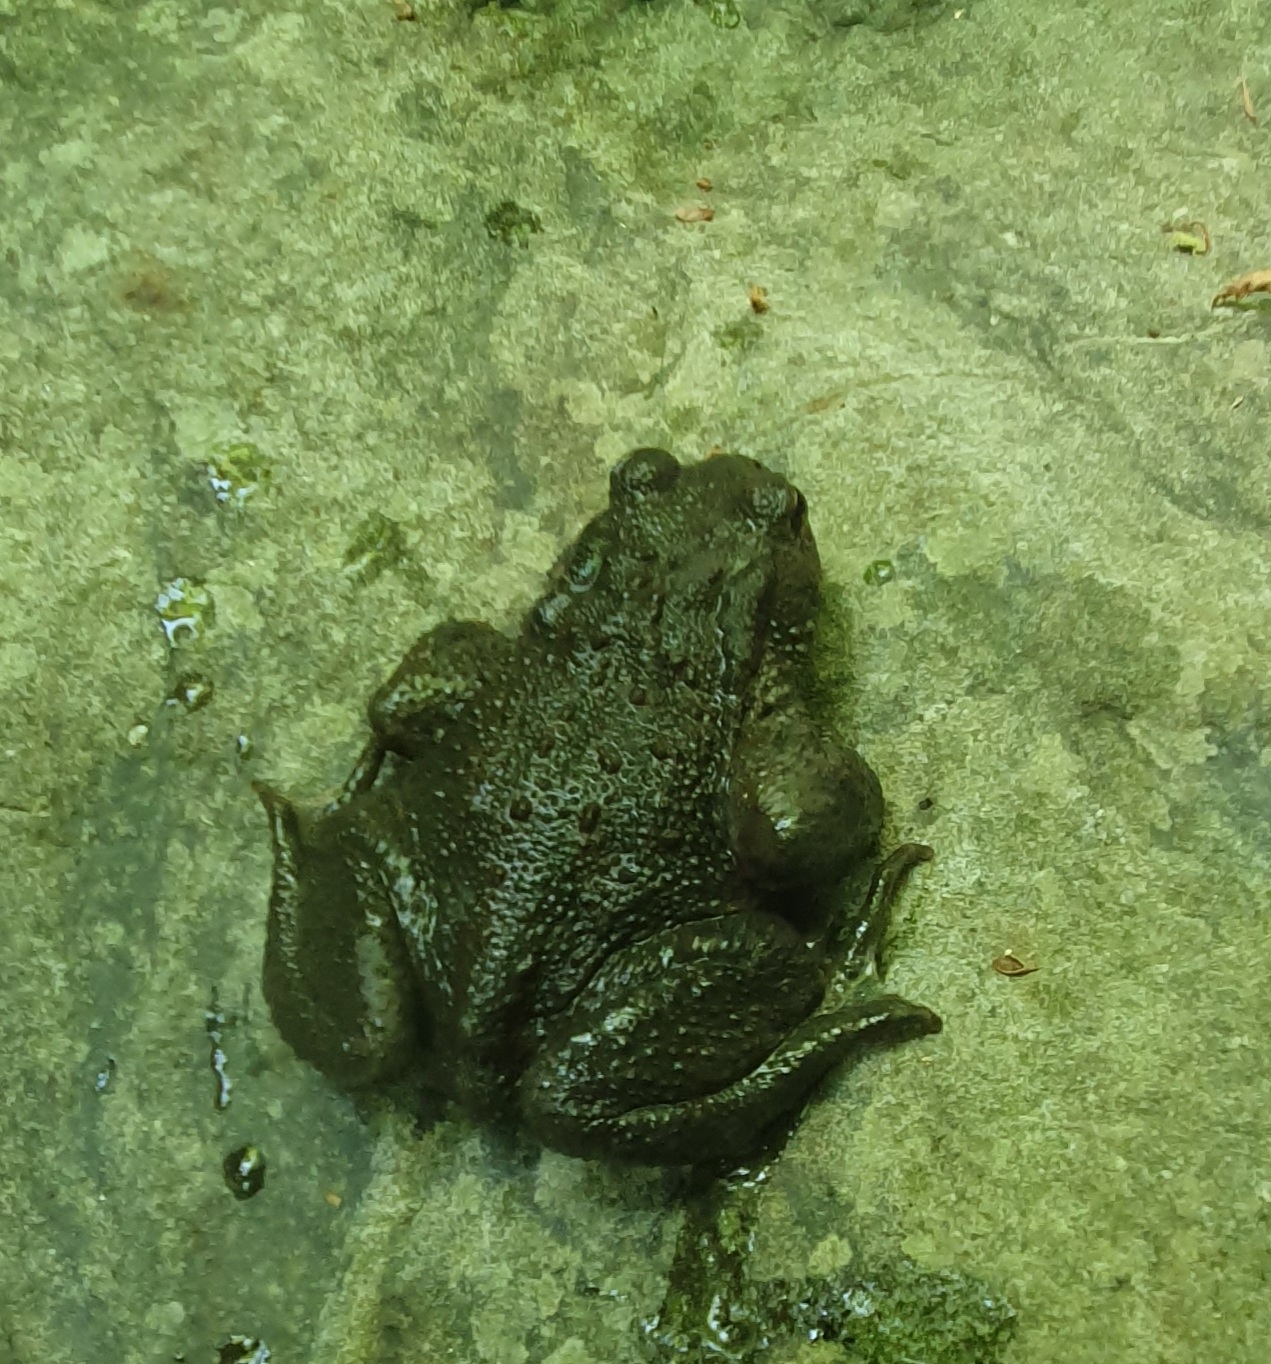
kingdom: Animalia
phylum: Chordata
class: Amphibia
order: Anura
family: Bufonidae
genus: Bufo
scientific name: Bufo bufo
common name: Common toad
